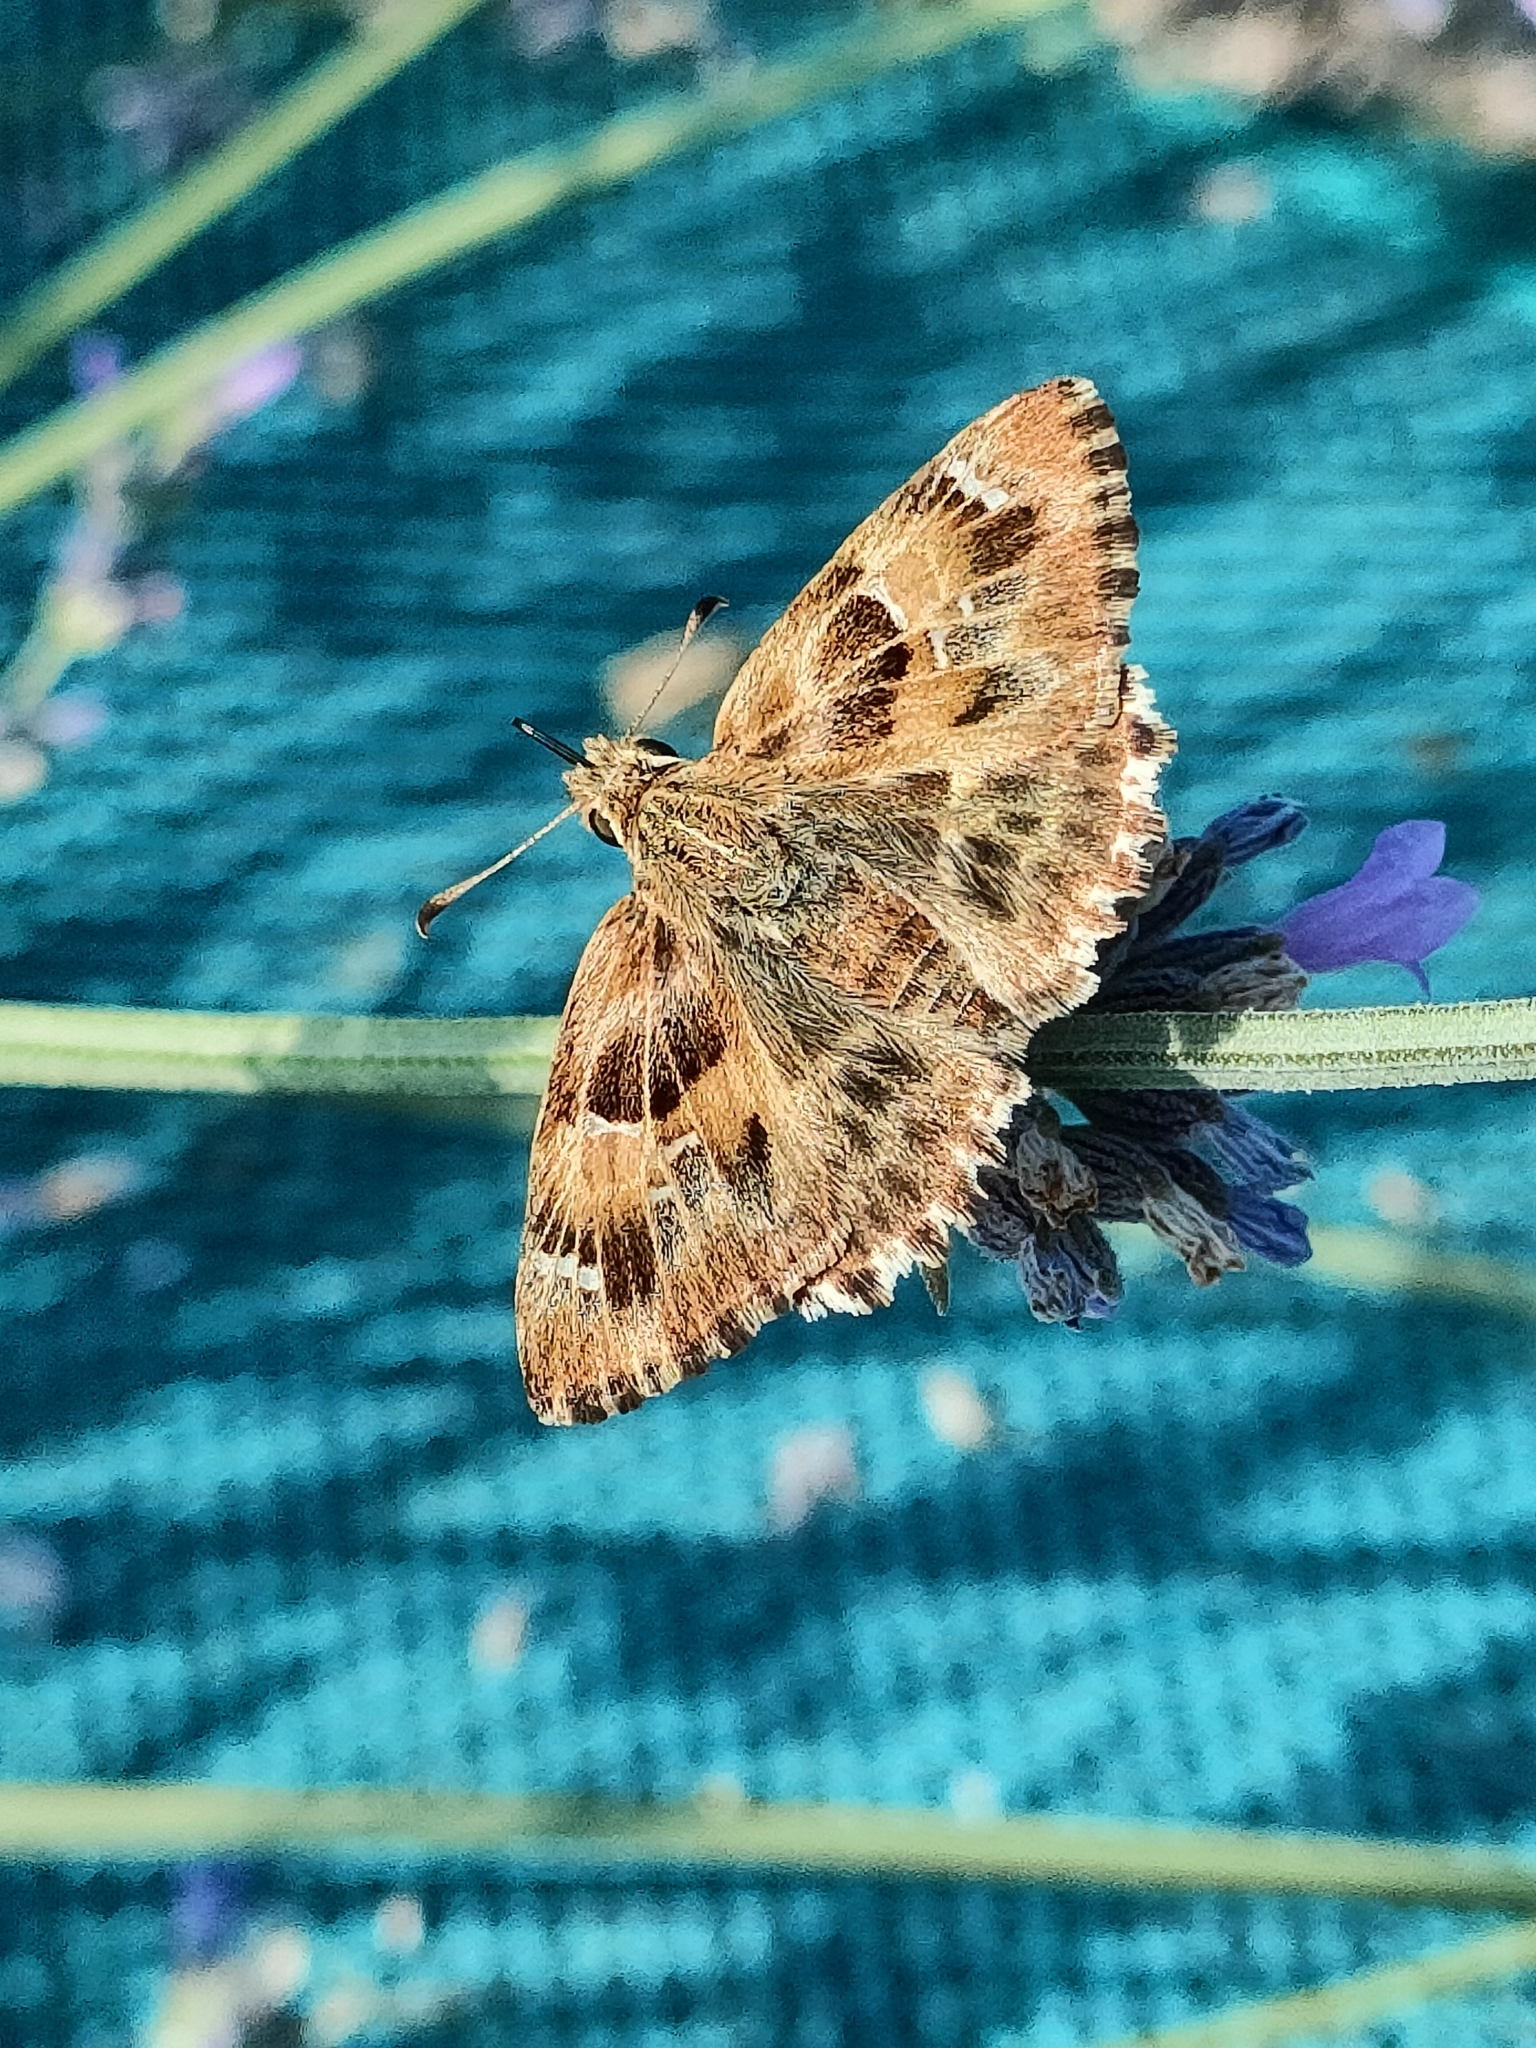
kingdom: Animalia
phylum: Arthropoda
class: Insecta
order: Lepidoptera
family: Hesperiidae
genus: Carcharodus
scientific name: Carcharodus alceae
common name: Mallow skipper
